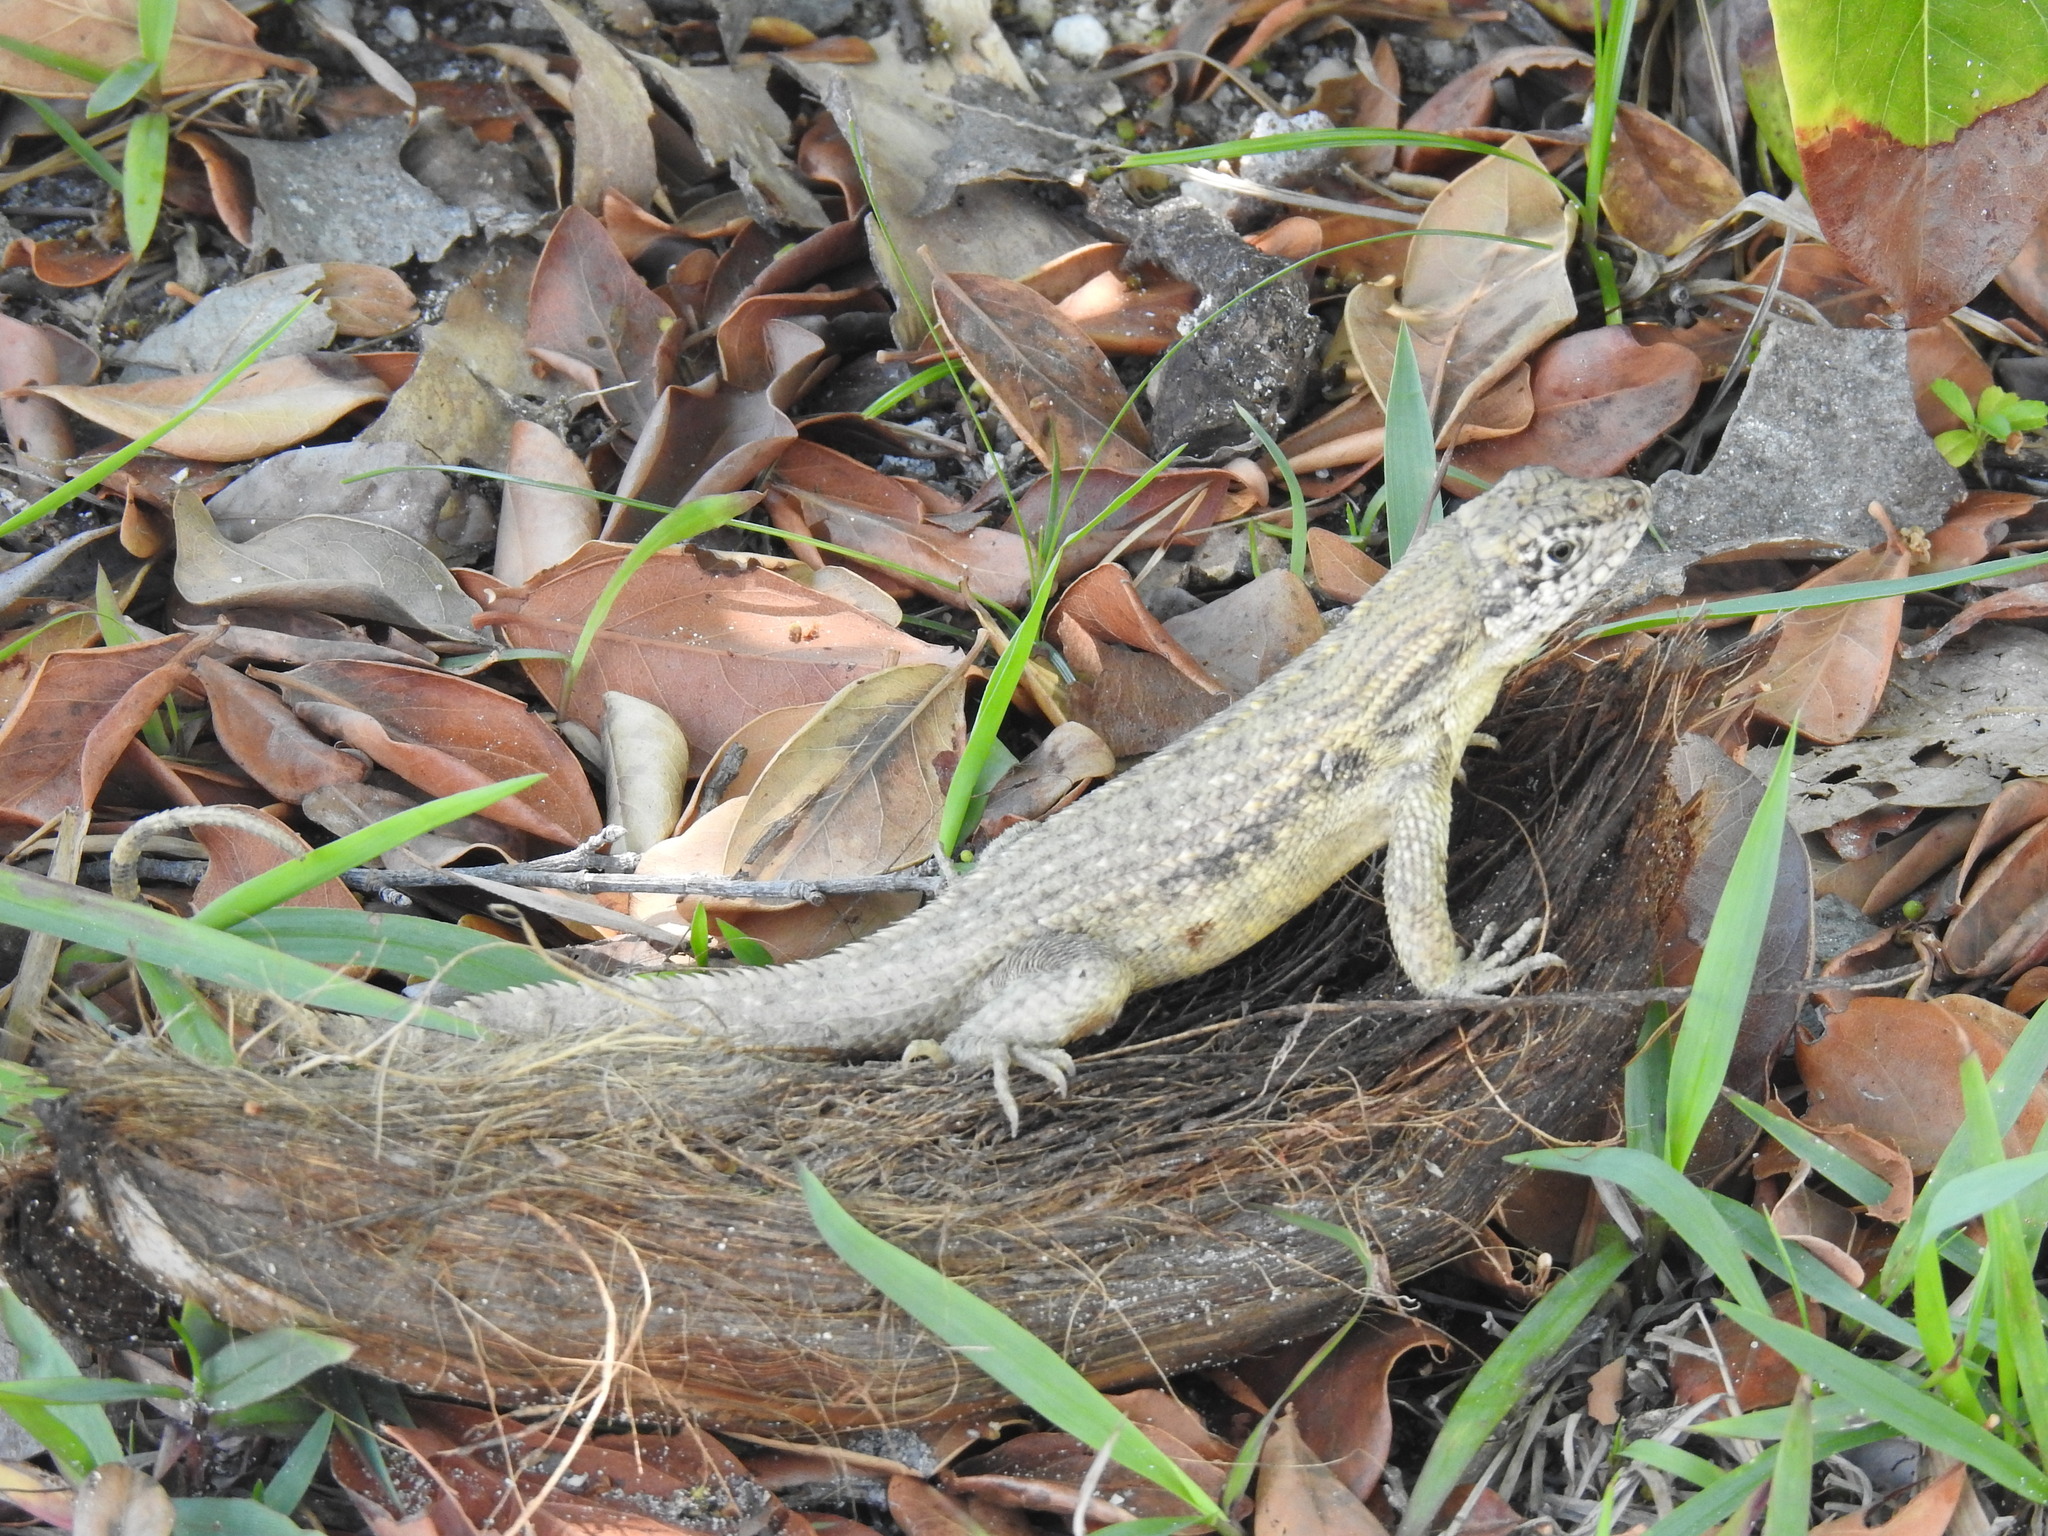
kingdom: Animalia
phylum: Chordata
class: Squamata
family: Leiocephalidae
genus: Leiocephalus
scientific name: Leiocephalus carinatus
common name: Northern curly-tailed lizard
